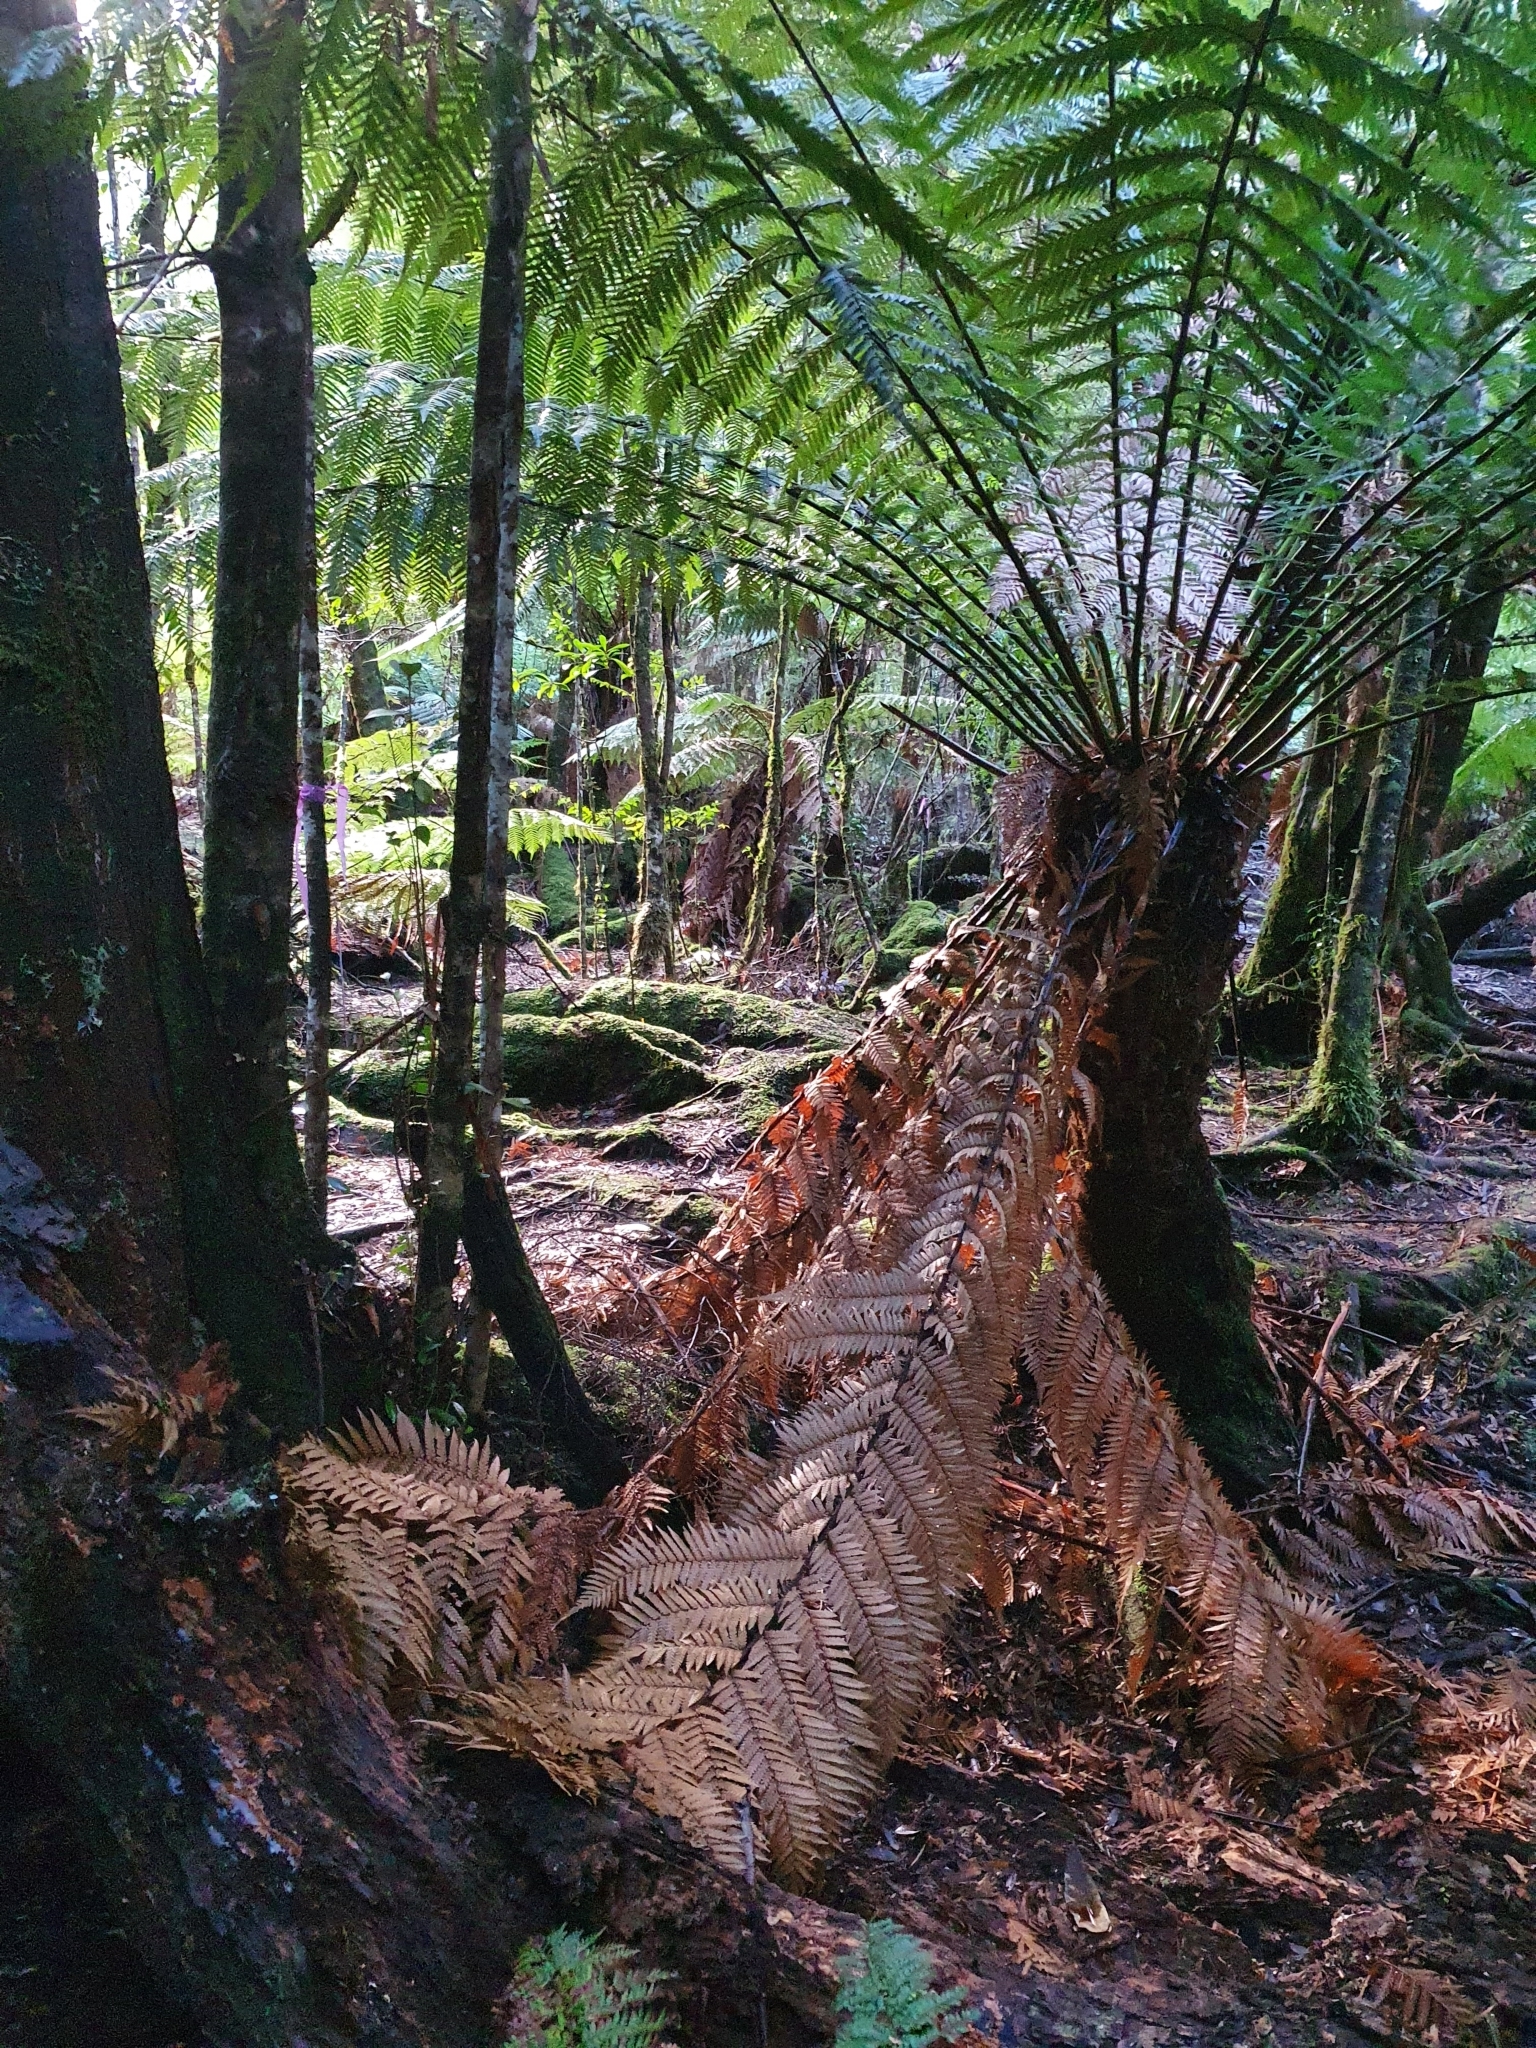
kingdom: Plantae
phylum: Tracheophyta
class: Polypodiopsida
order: Cyatheales
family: Dicksoniaceae
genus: Dicksonia
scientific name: Dicksonia antarctica
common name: Australian treefern
